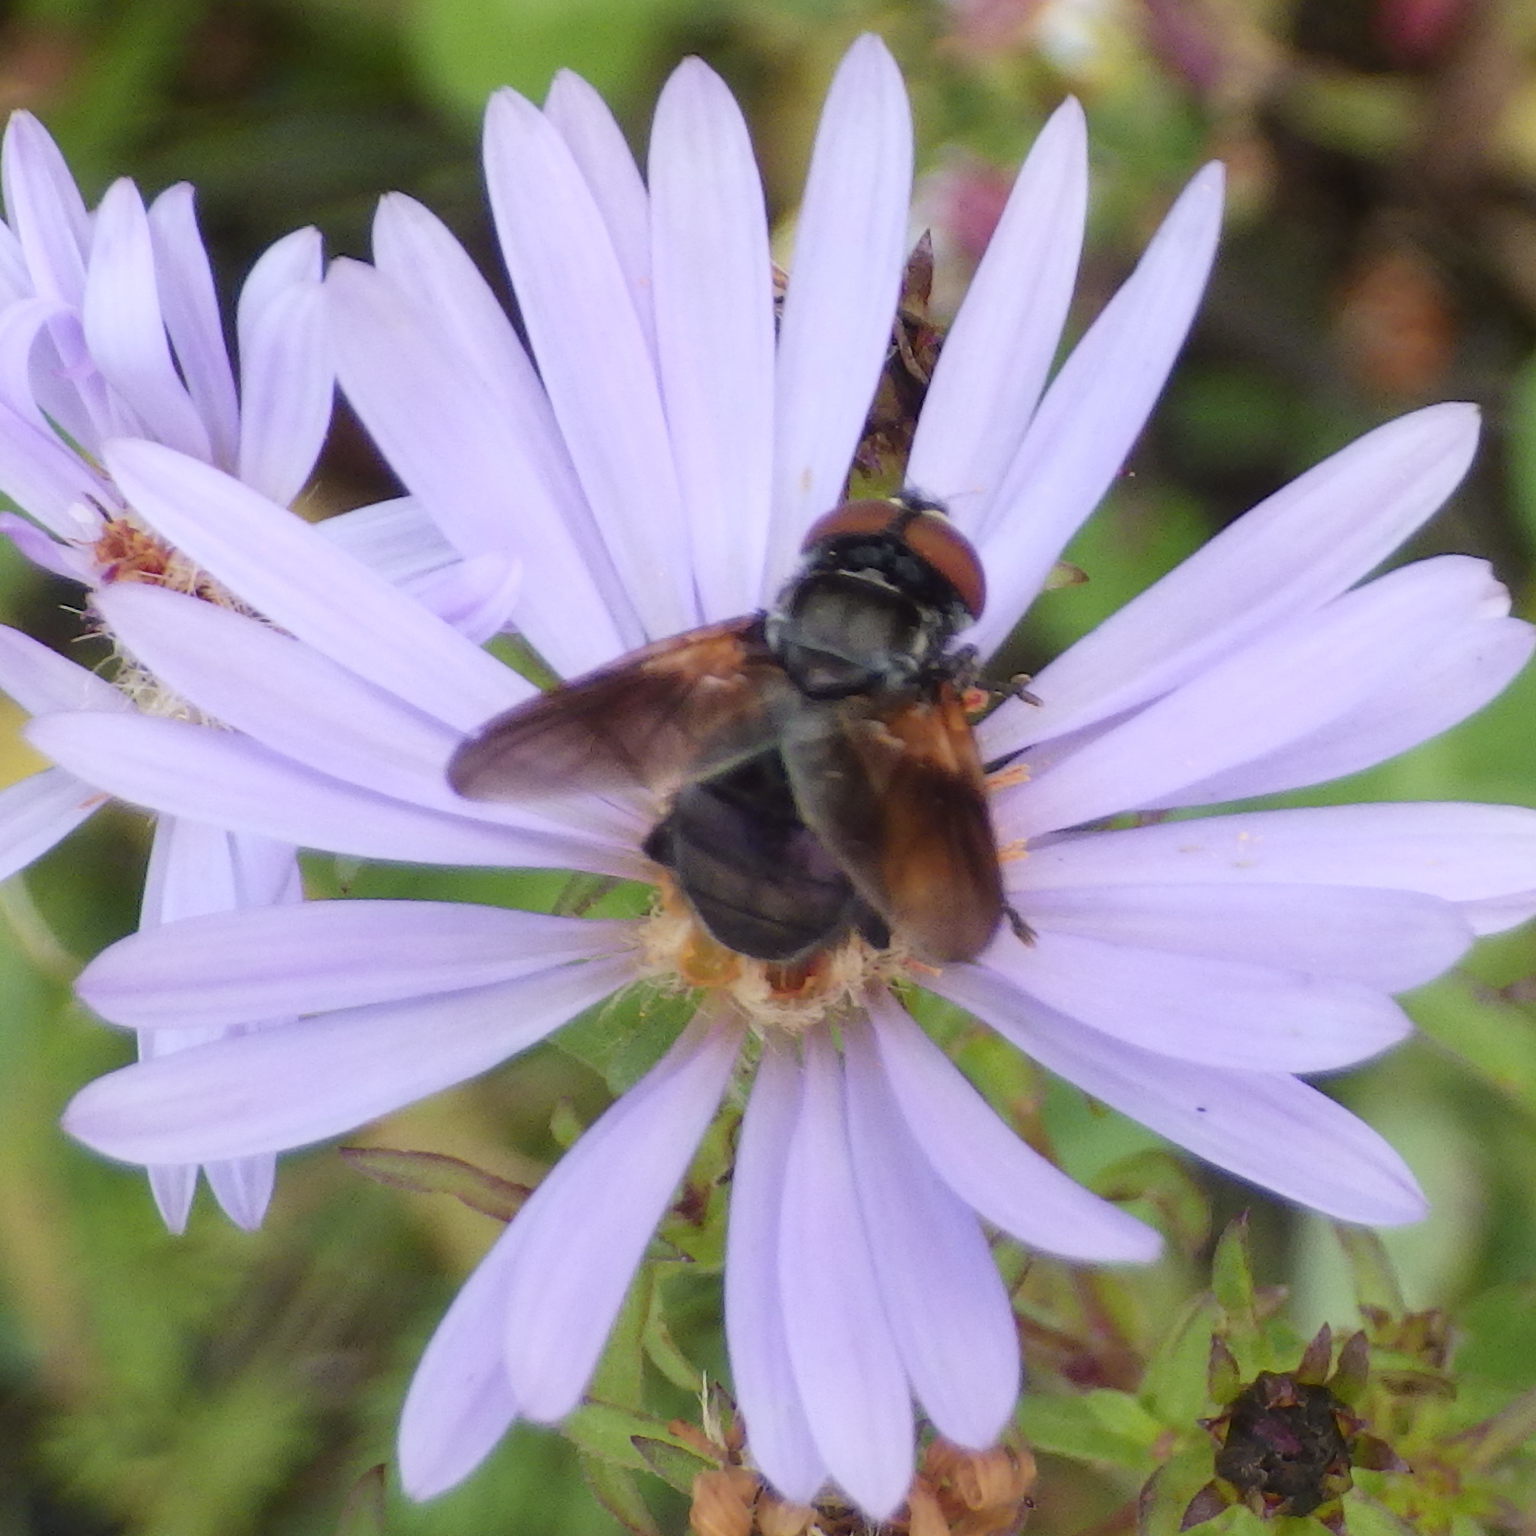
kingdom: Animalia
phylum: Arthropoda
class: Insecta
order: Diptera
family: Tachinidae
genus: Phasia
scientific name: Phasia aurulans
